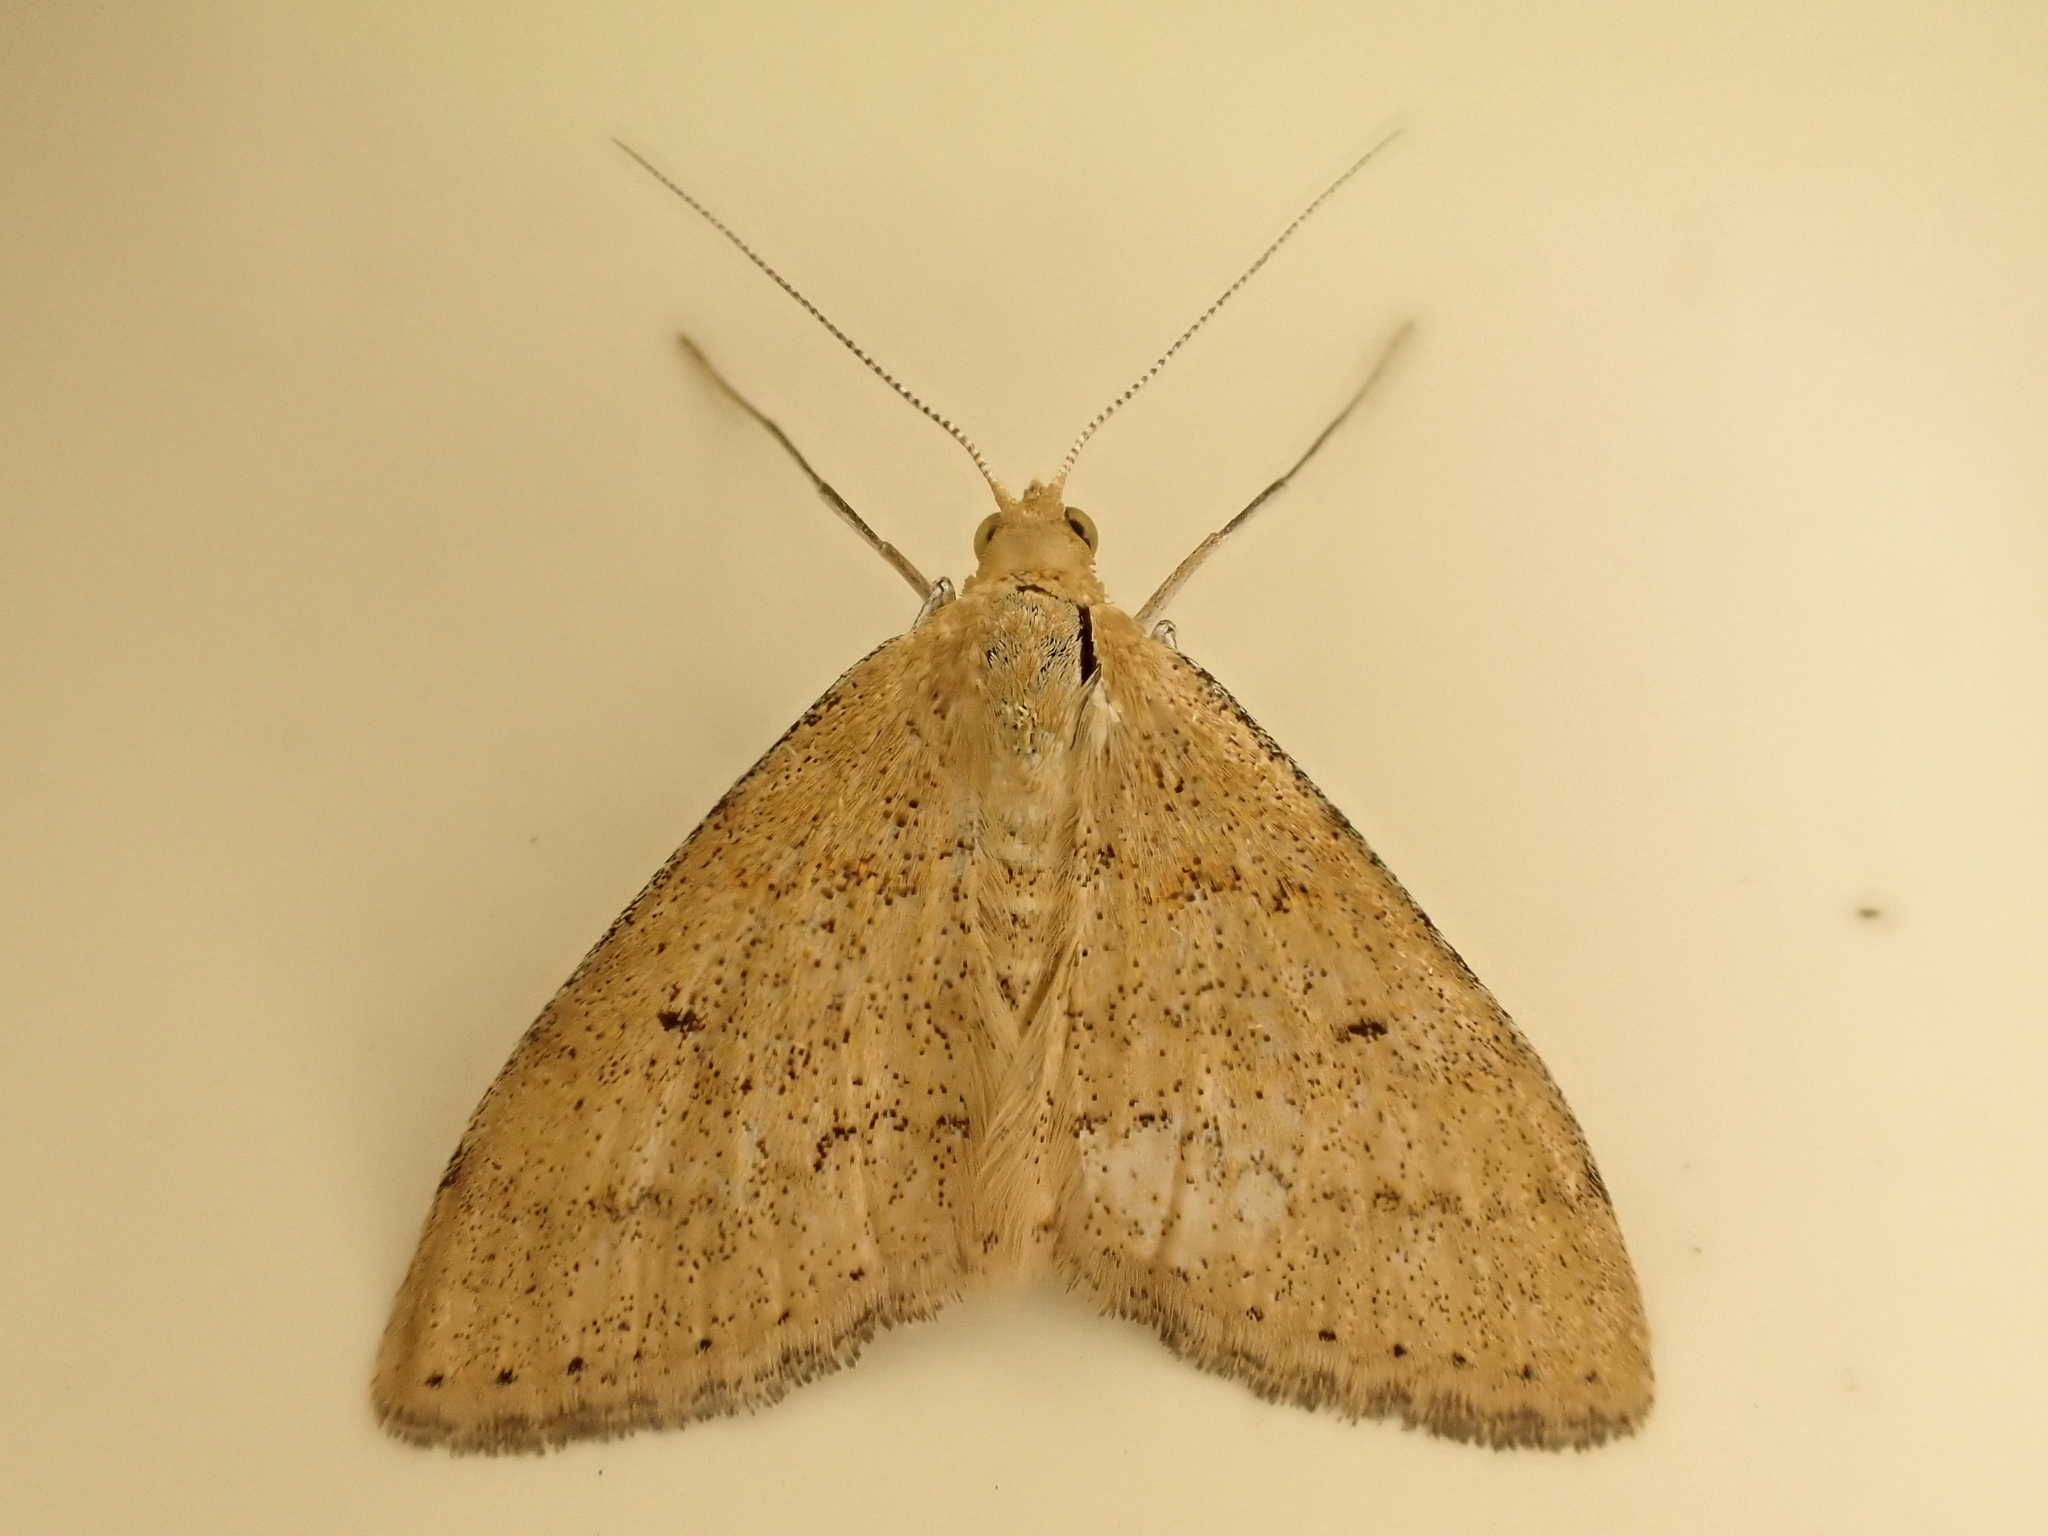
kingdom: Animalia
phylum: Arthropoda
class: Insecta
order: Lepidoptera
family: Geometridae
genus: Scopula
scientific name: Scopula rubraria
